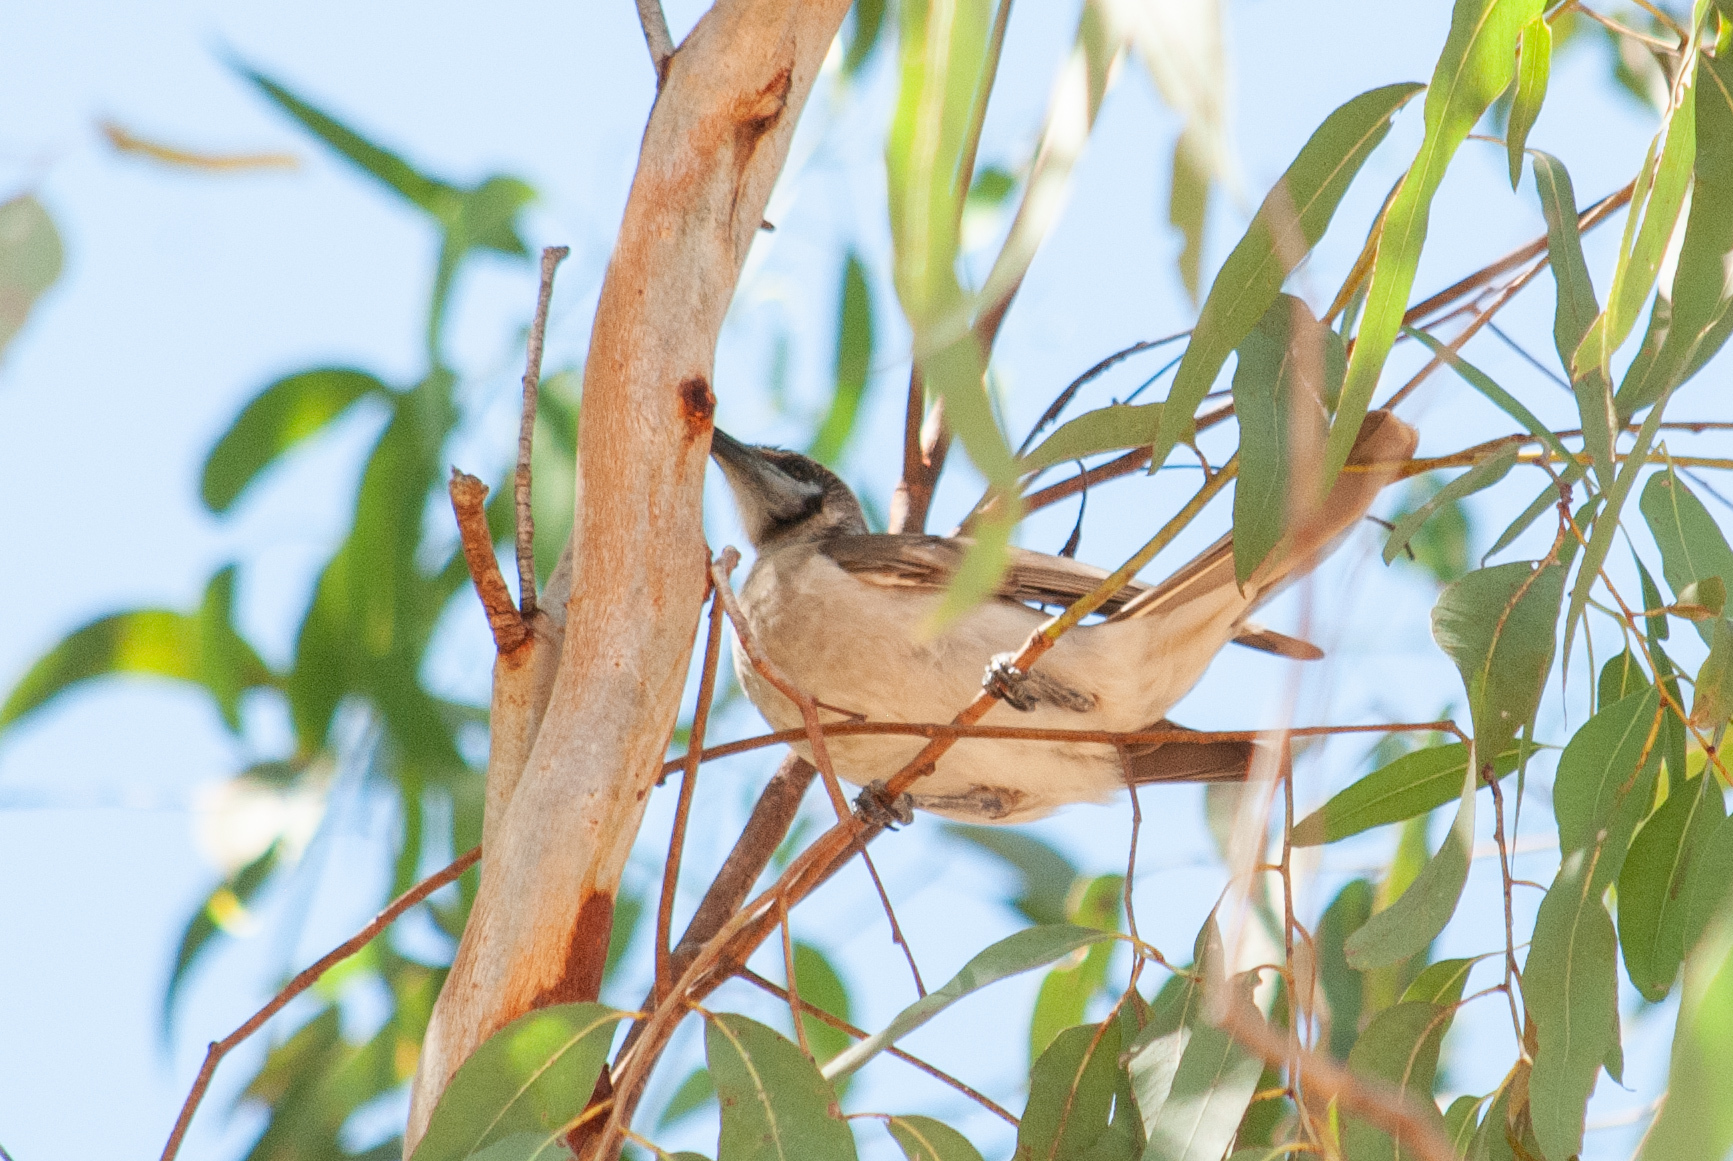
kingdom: Animalia
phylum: Chordata
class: Aves
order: Passeriformes
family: Meliphagidae
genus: Philemon
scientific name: Philemon citreogularis
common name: Little friarbird
